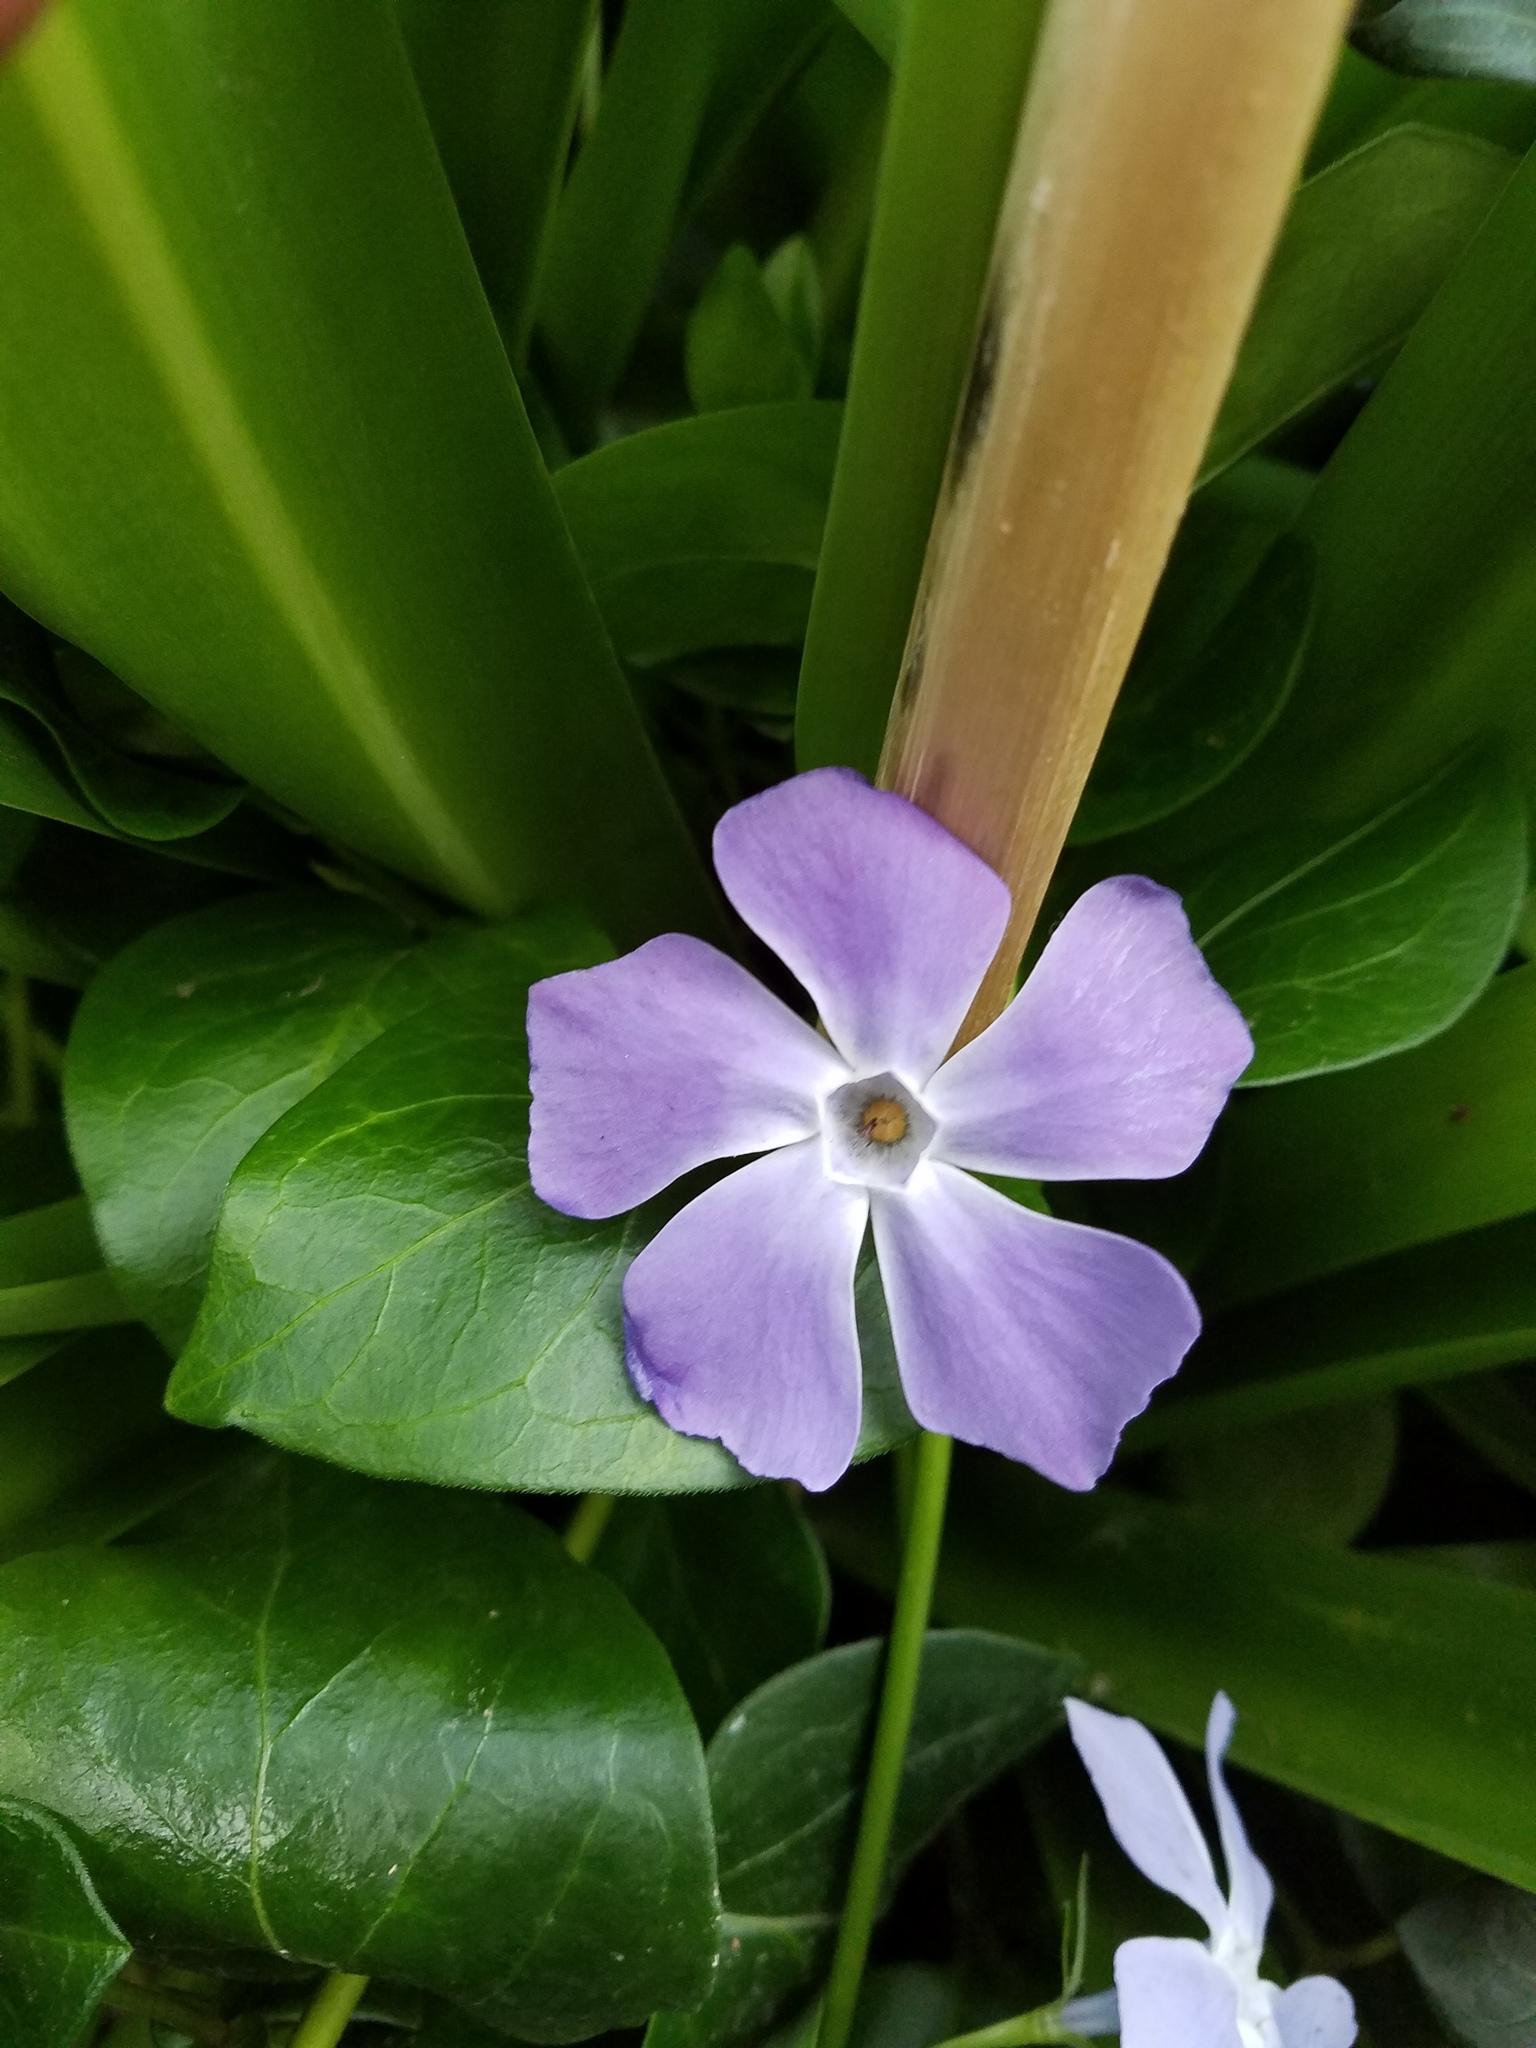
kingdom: Plantae
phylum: Tracheophyta
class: Magnoliopsida
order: Gentianales
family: Apocynaceae
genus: Vinca
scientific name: Vinca major
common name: Greater periwinkle
